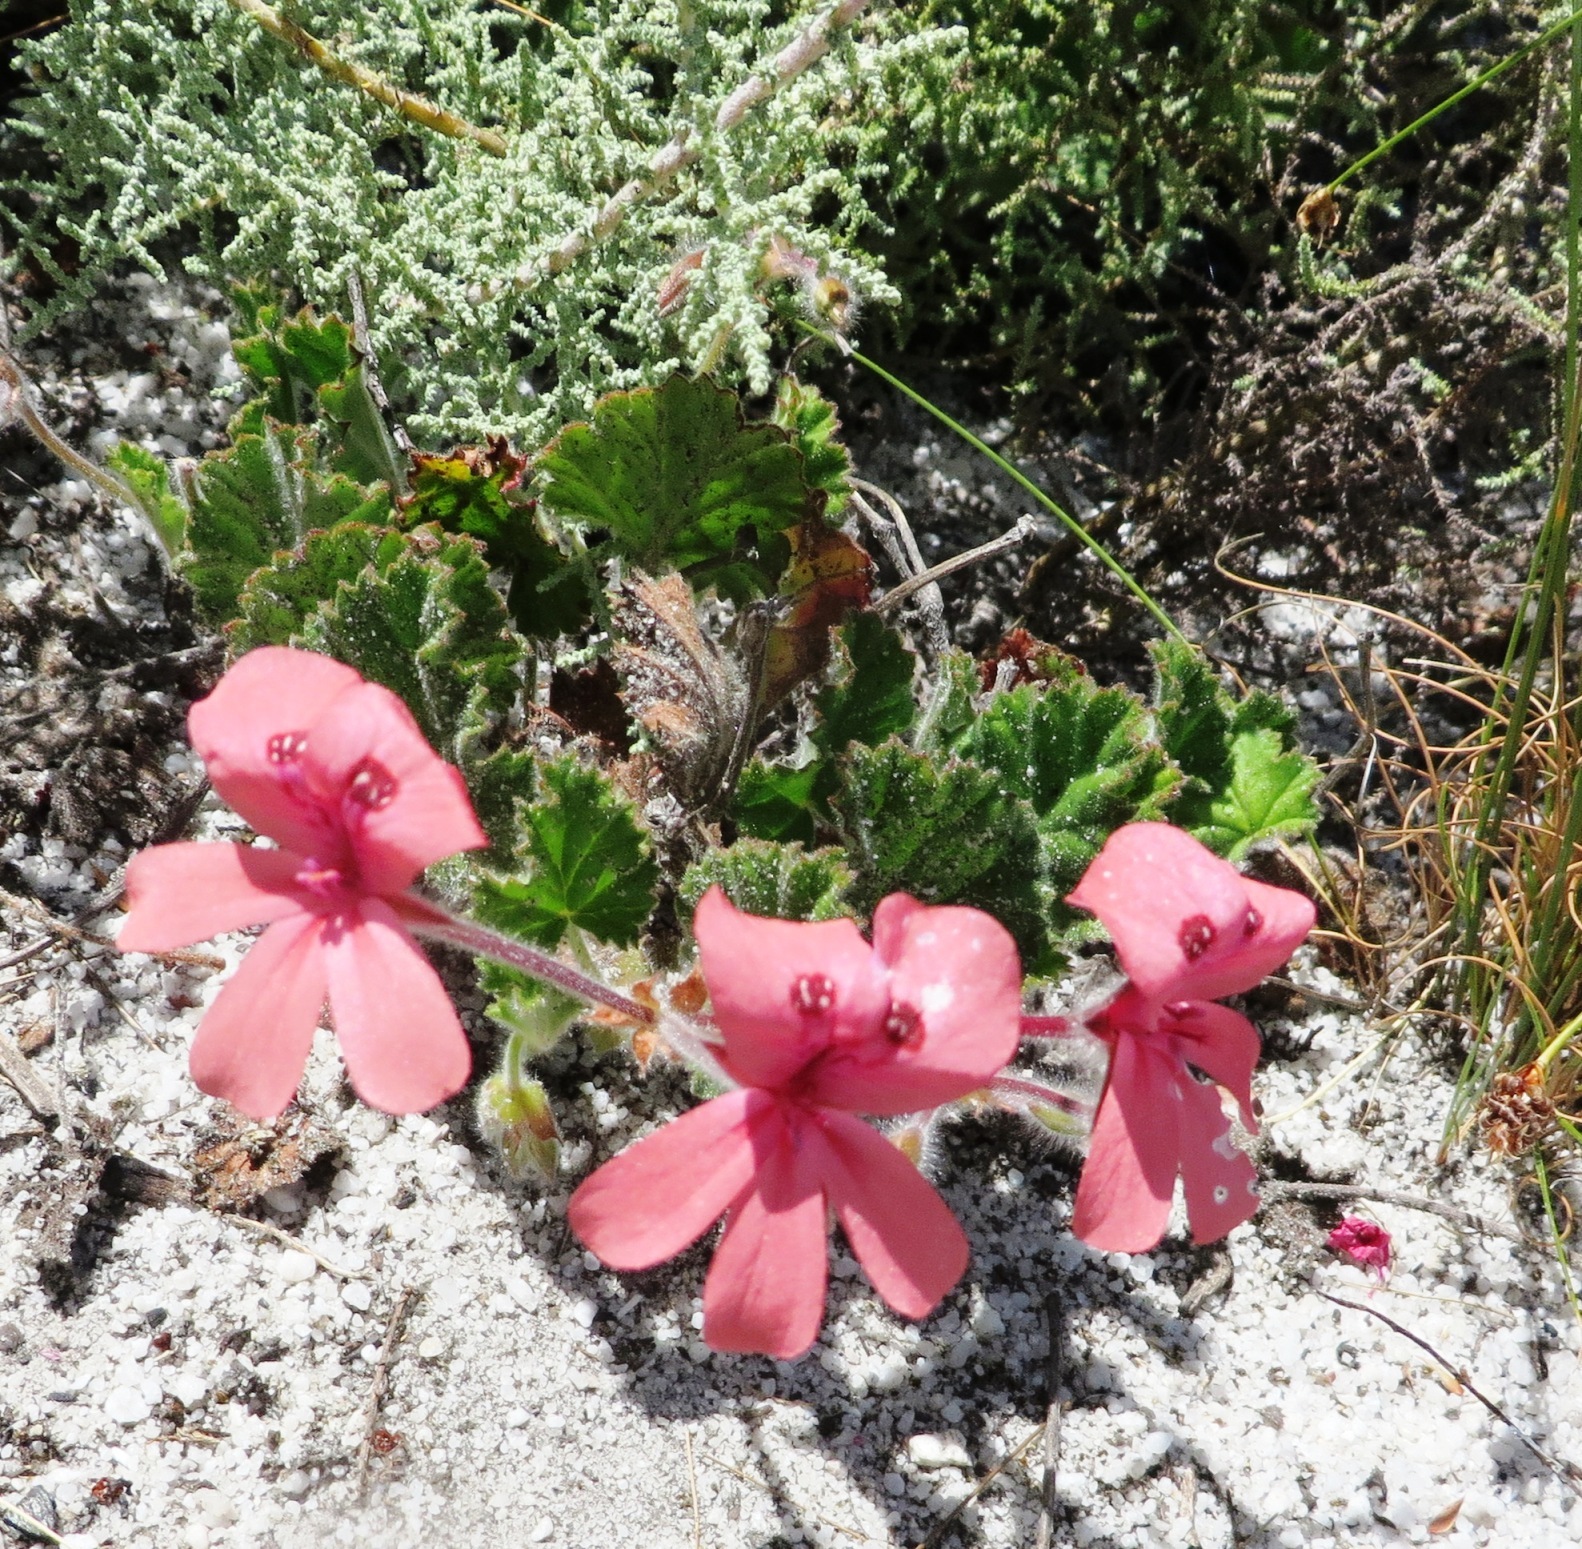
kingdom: Plantae
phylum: Tracheophyta
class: Magnoliopsida
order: Geraniales
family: Geraniaceae
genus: Pelargonium
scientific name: Pelargonium alpinum
